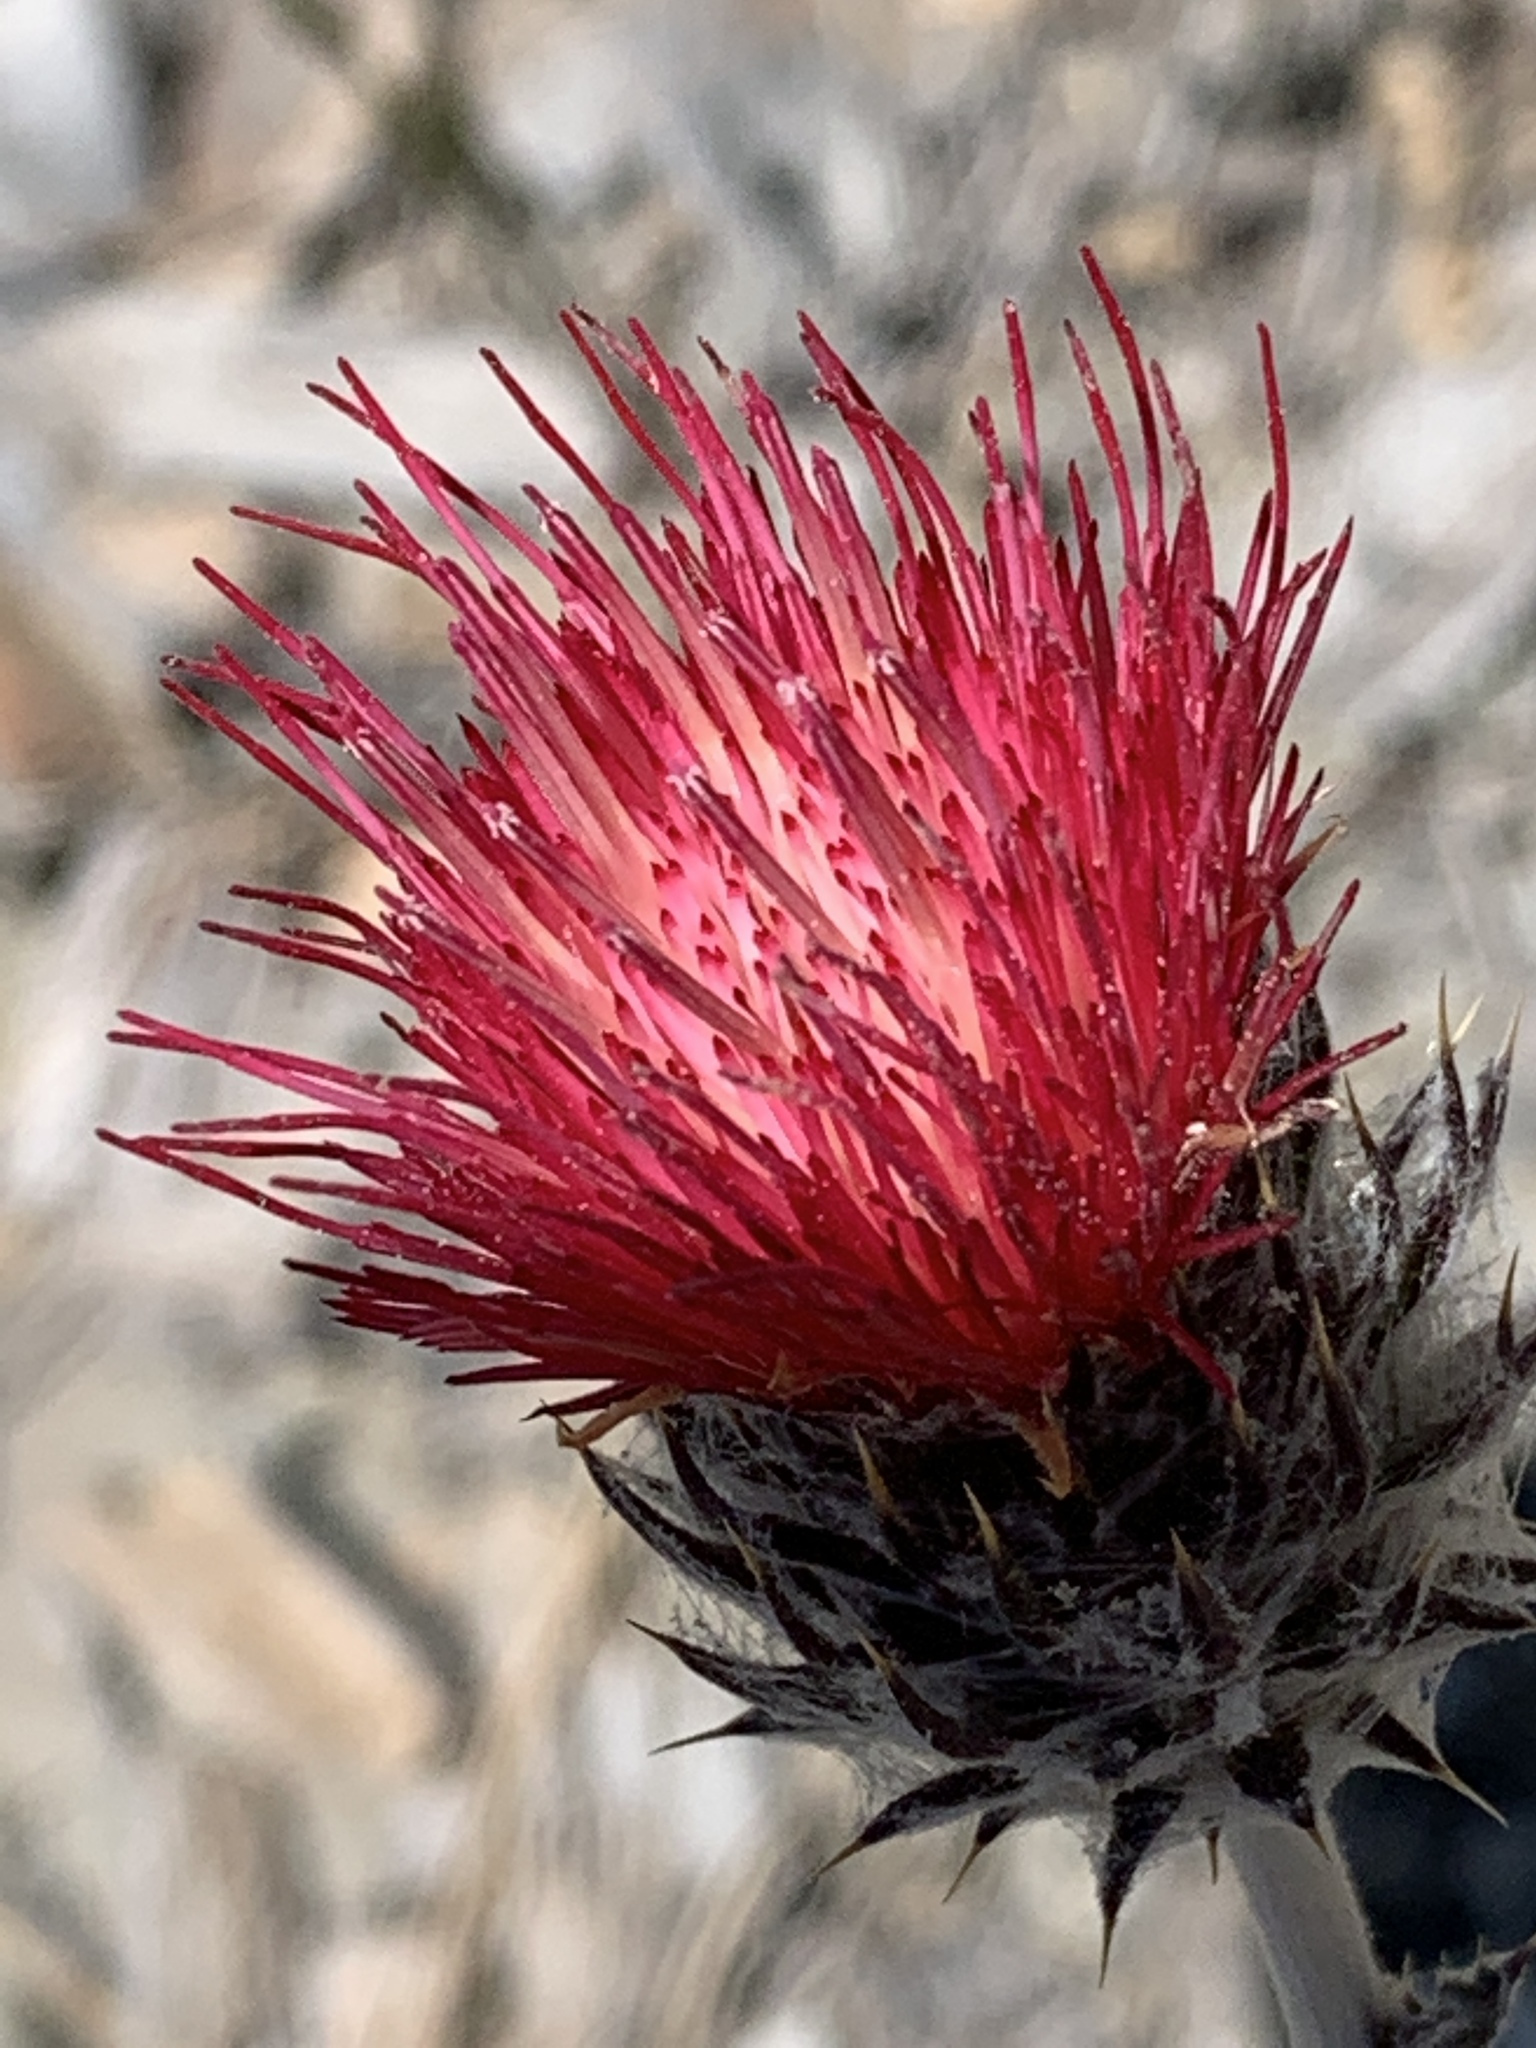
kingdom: Plantae
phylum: Tracheophyta
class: Magnoliopsida
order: Asterales
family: Asteraceae
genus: Cirsium
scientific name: Cirsium occidentale
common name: Western thistle
